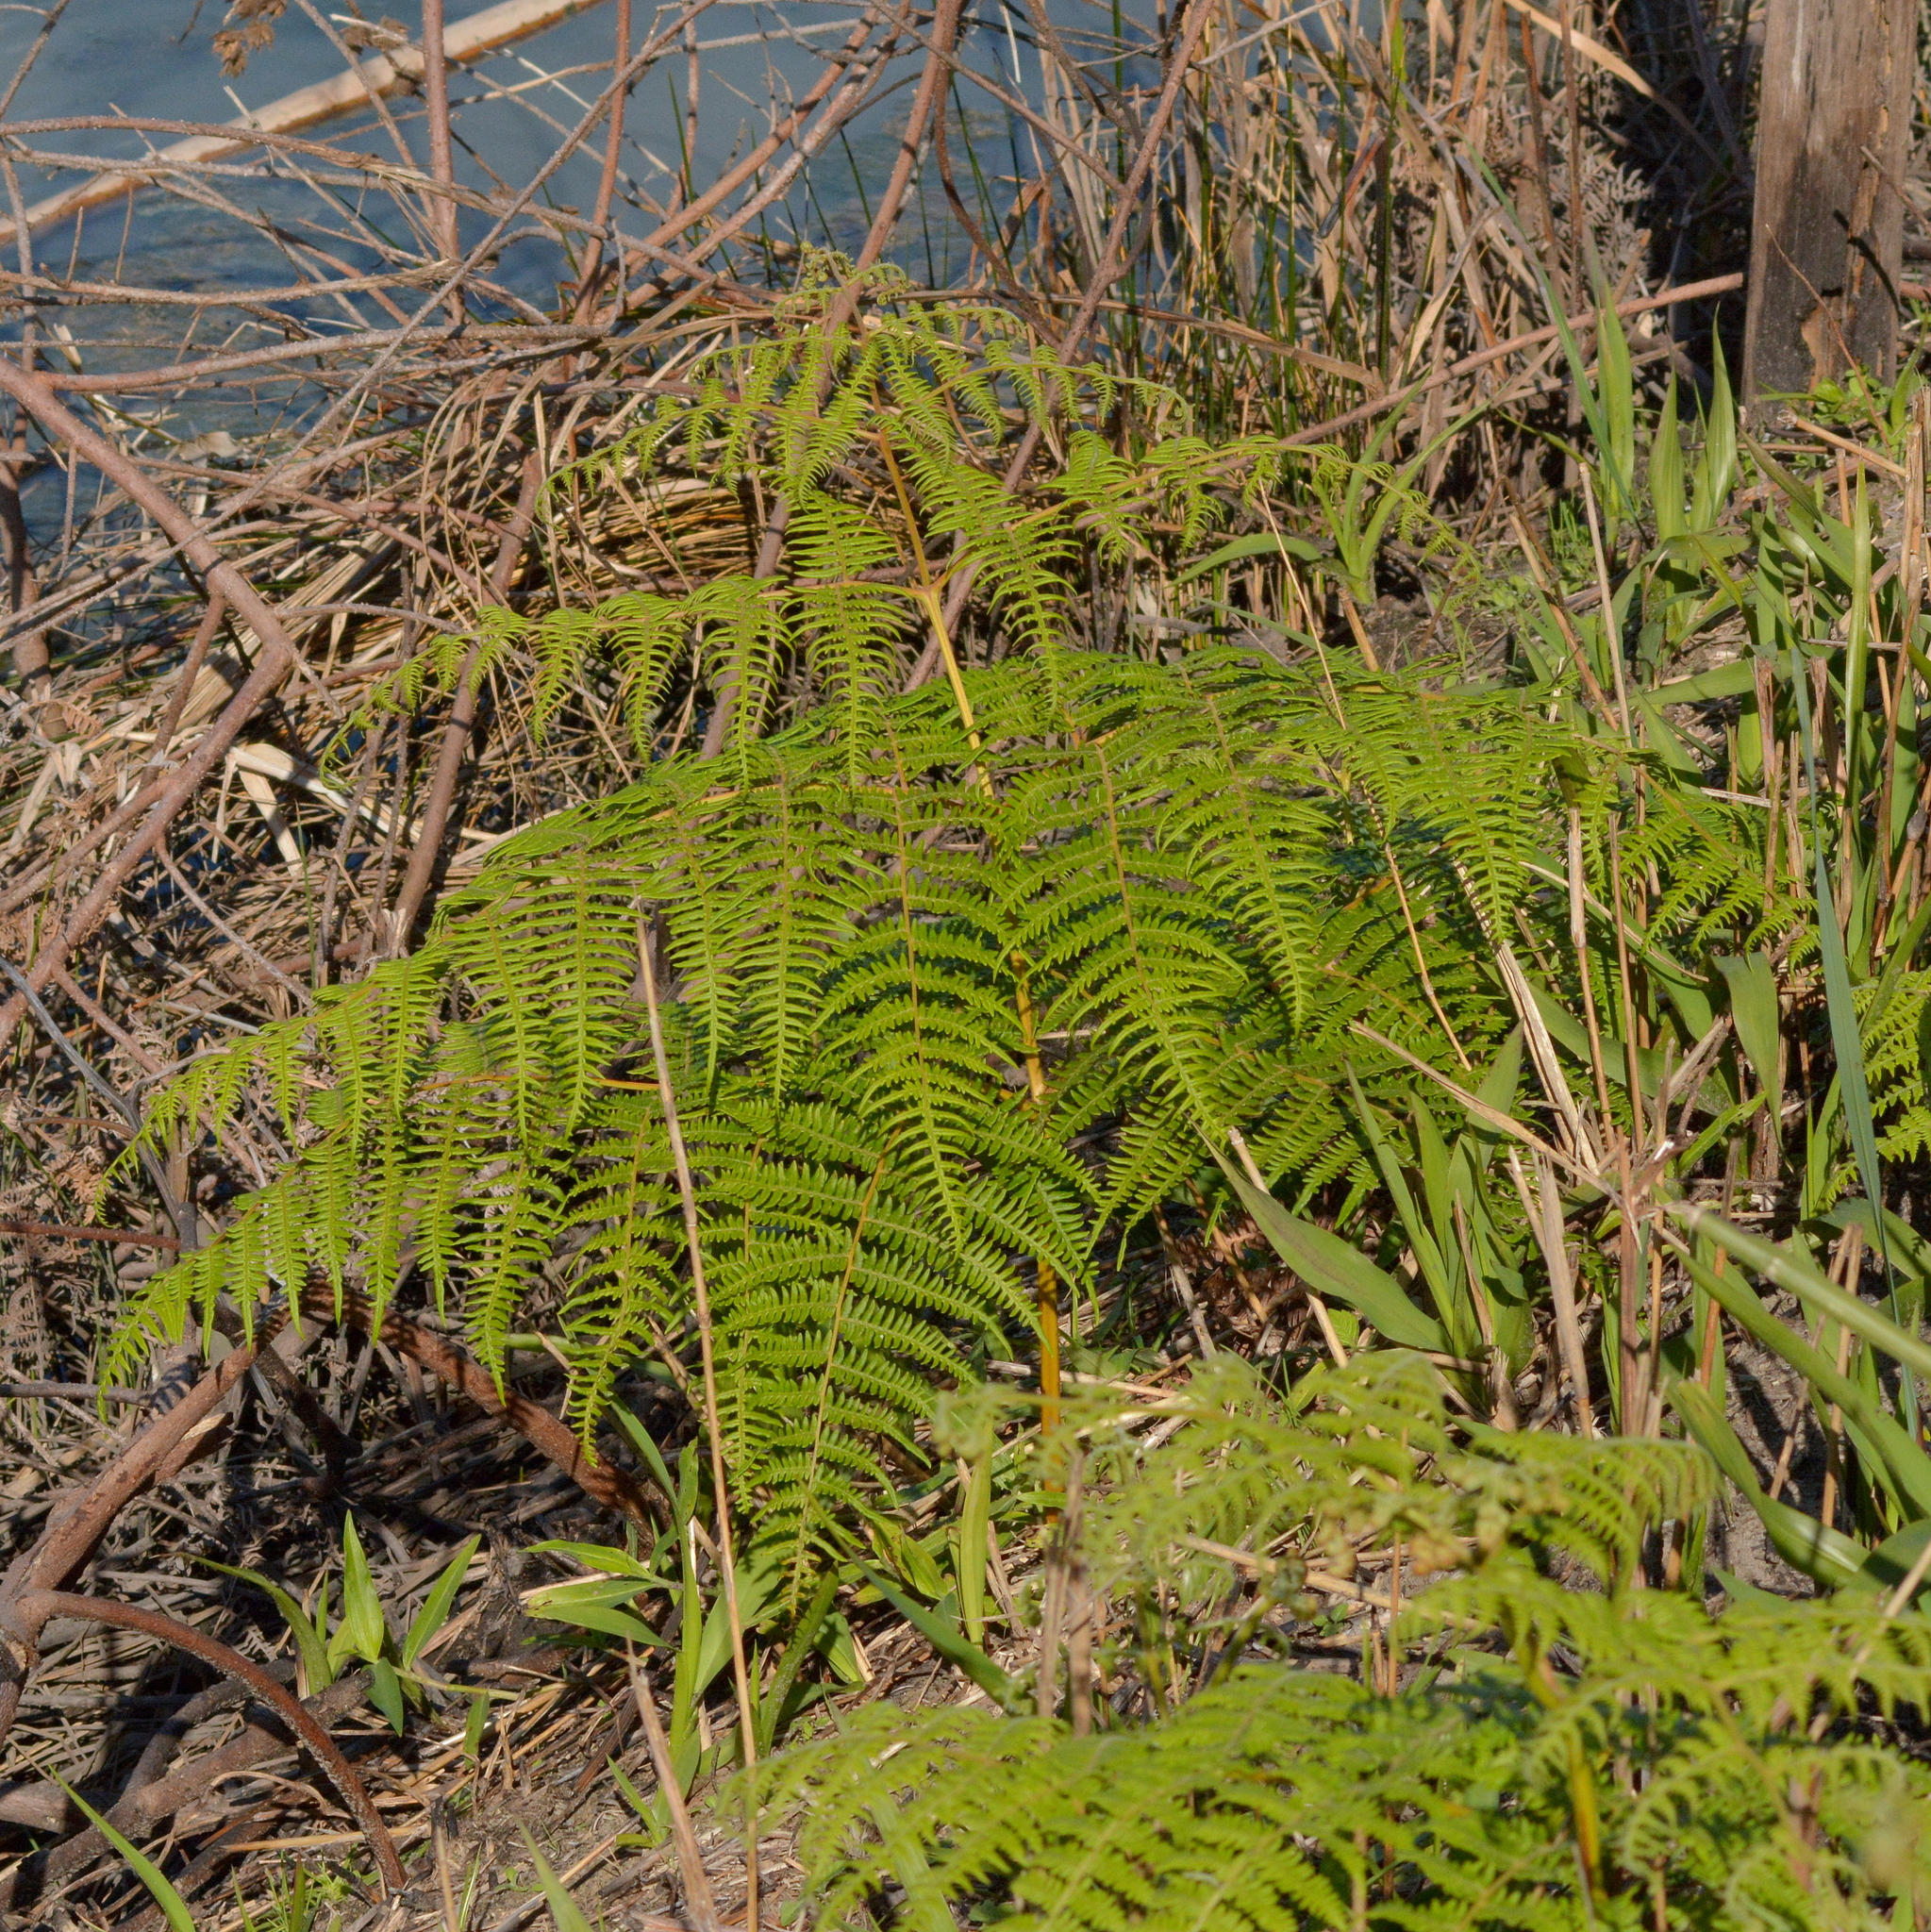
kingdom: Plantae
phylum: Tracheophyta
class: Polypodiopsida
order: Polypodiales
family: Dennstaedtiaceae
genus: Pteridium
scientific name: Pteridium aquilinum
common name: Bracken
